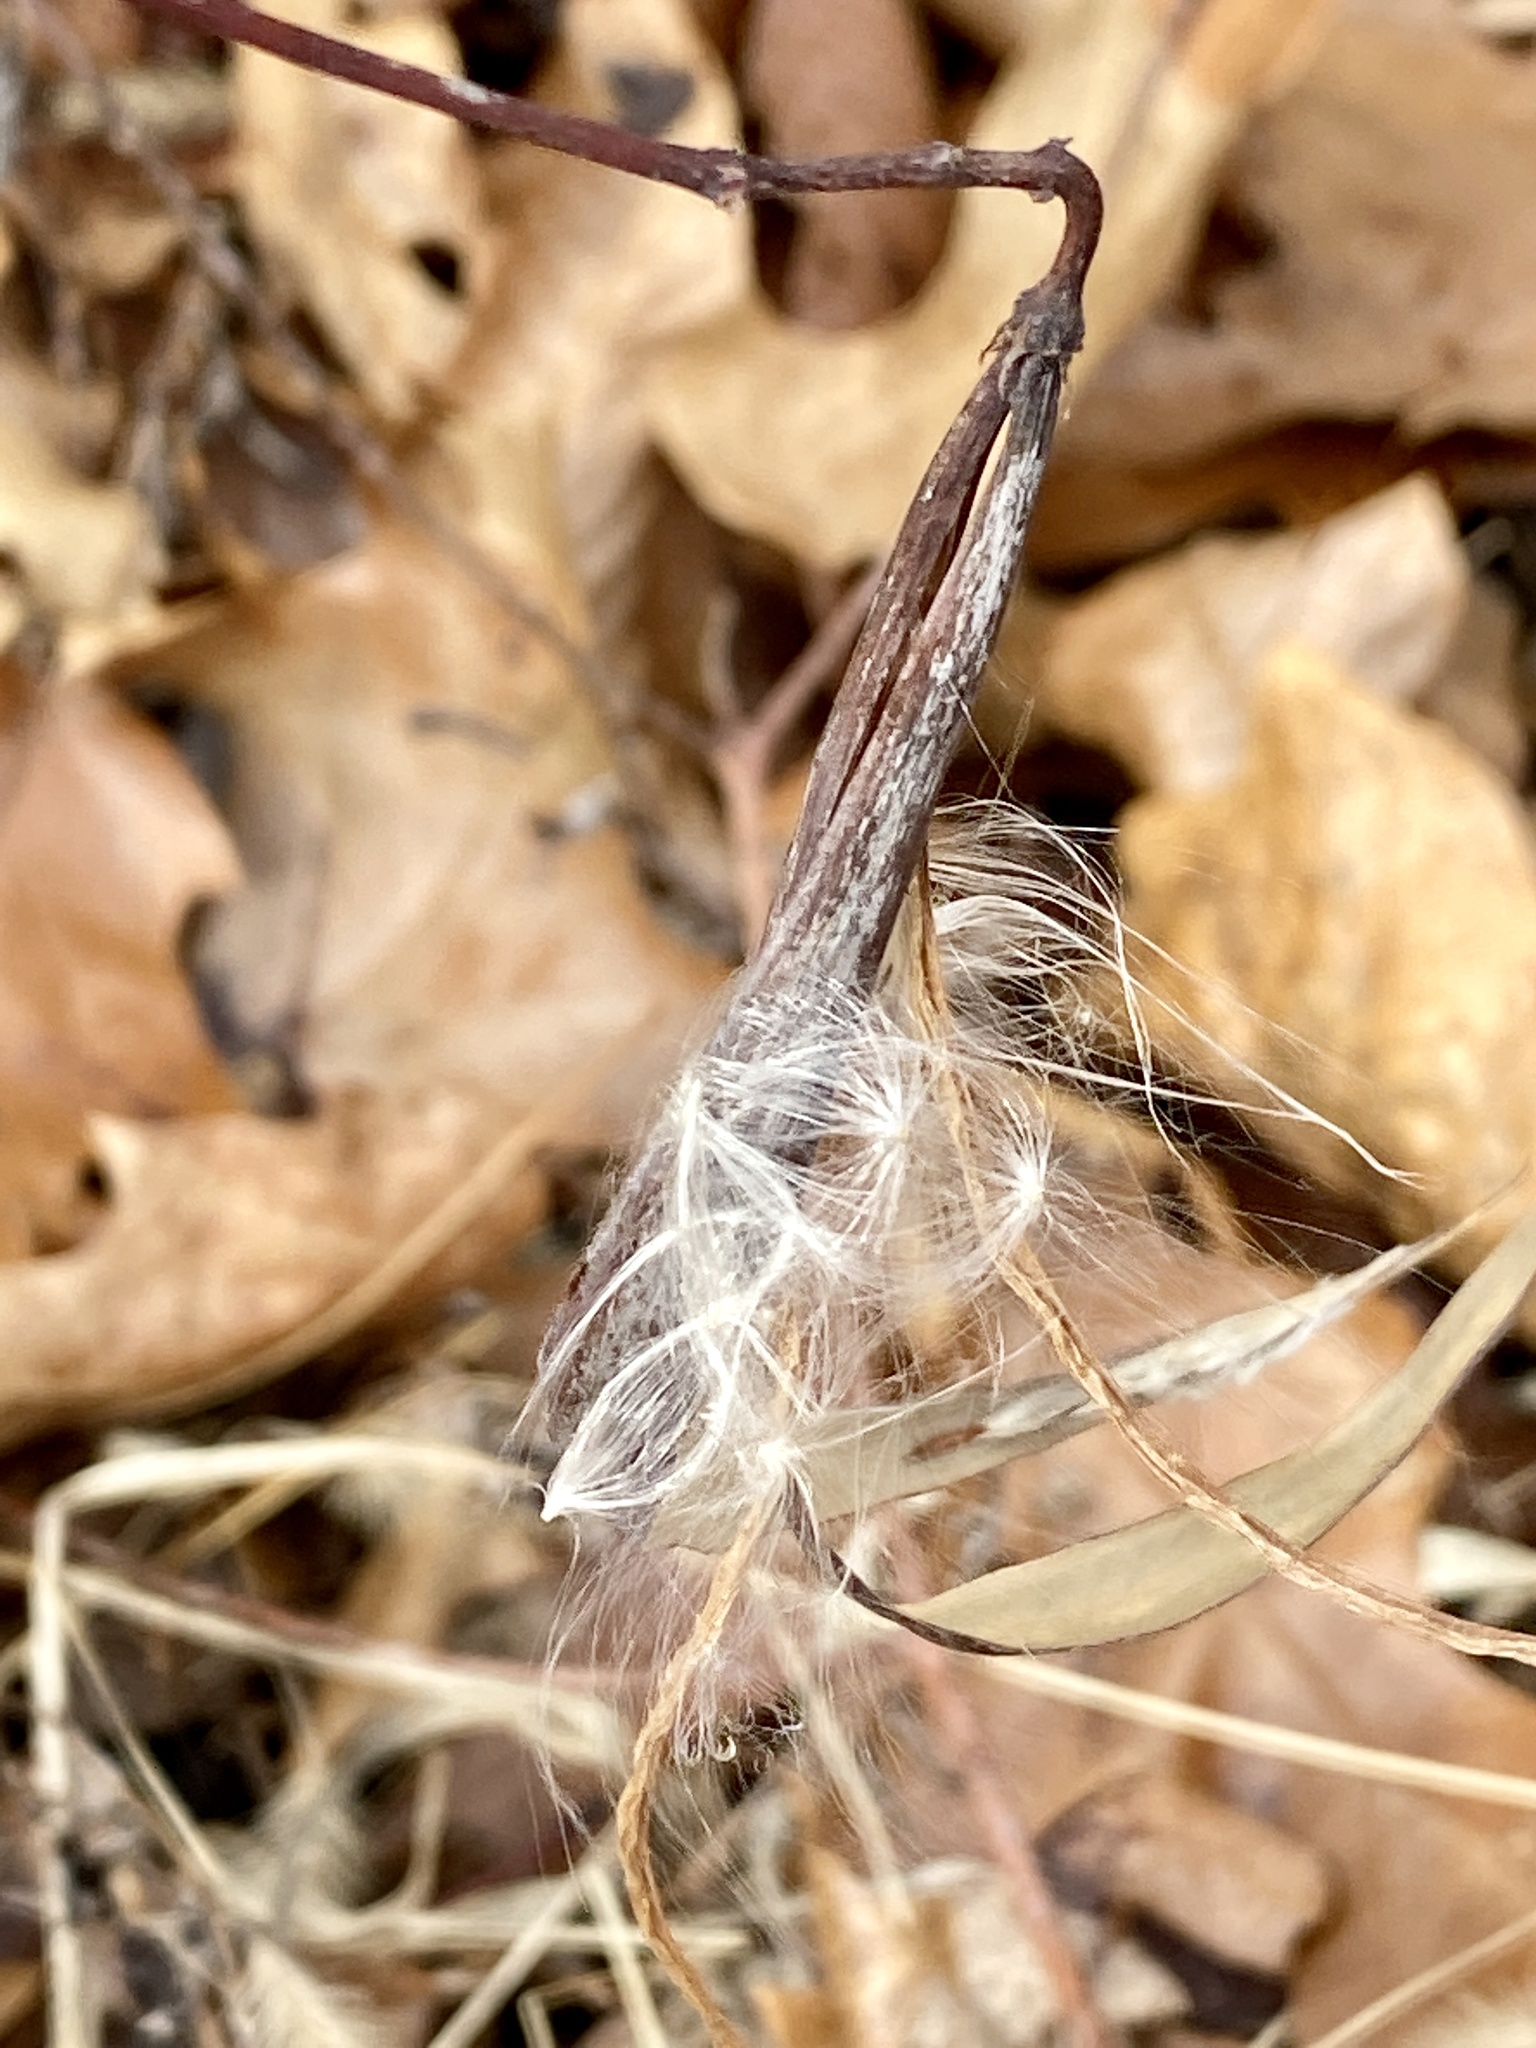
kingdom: Plantae
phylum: Tracheophyta
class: Magnoliopsida
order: Gentianales
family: Apocynaceae
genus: Apocynum
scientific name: Apocynum cannabinum
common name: Hemp dogbane
